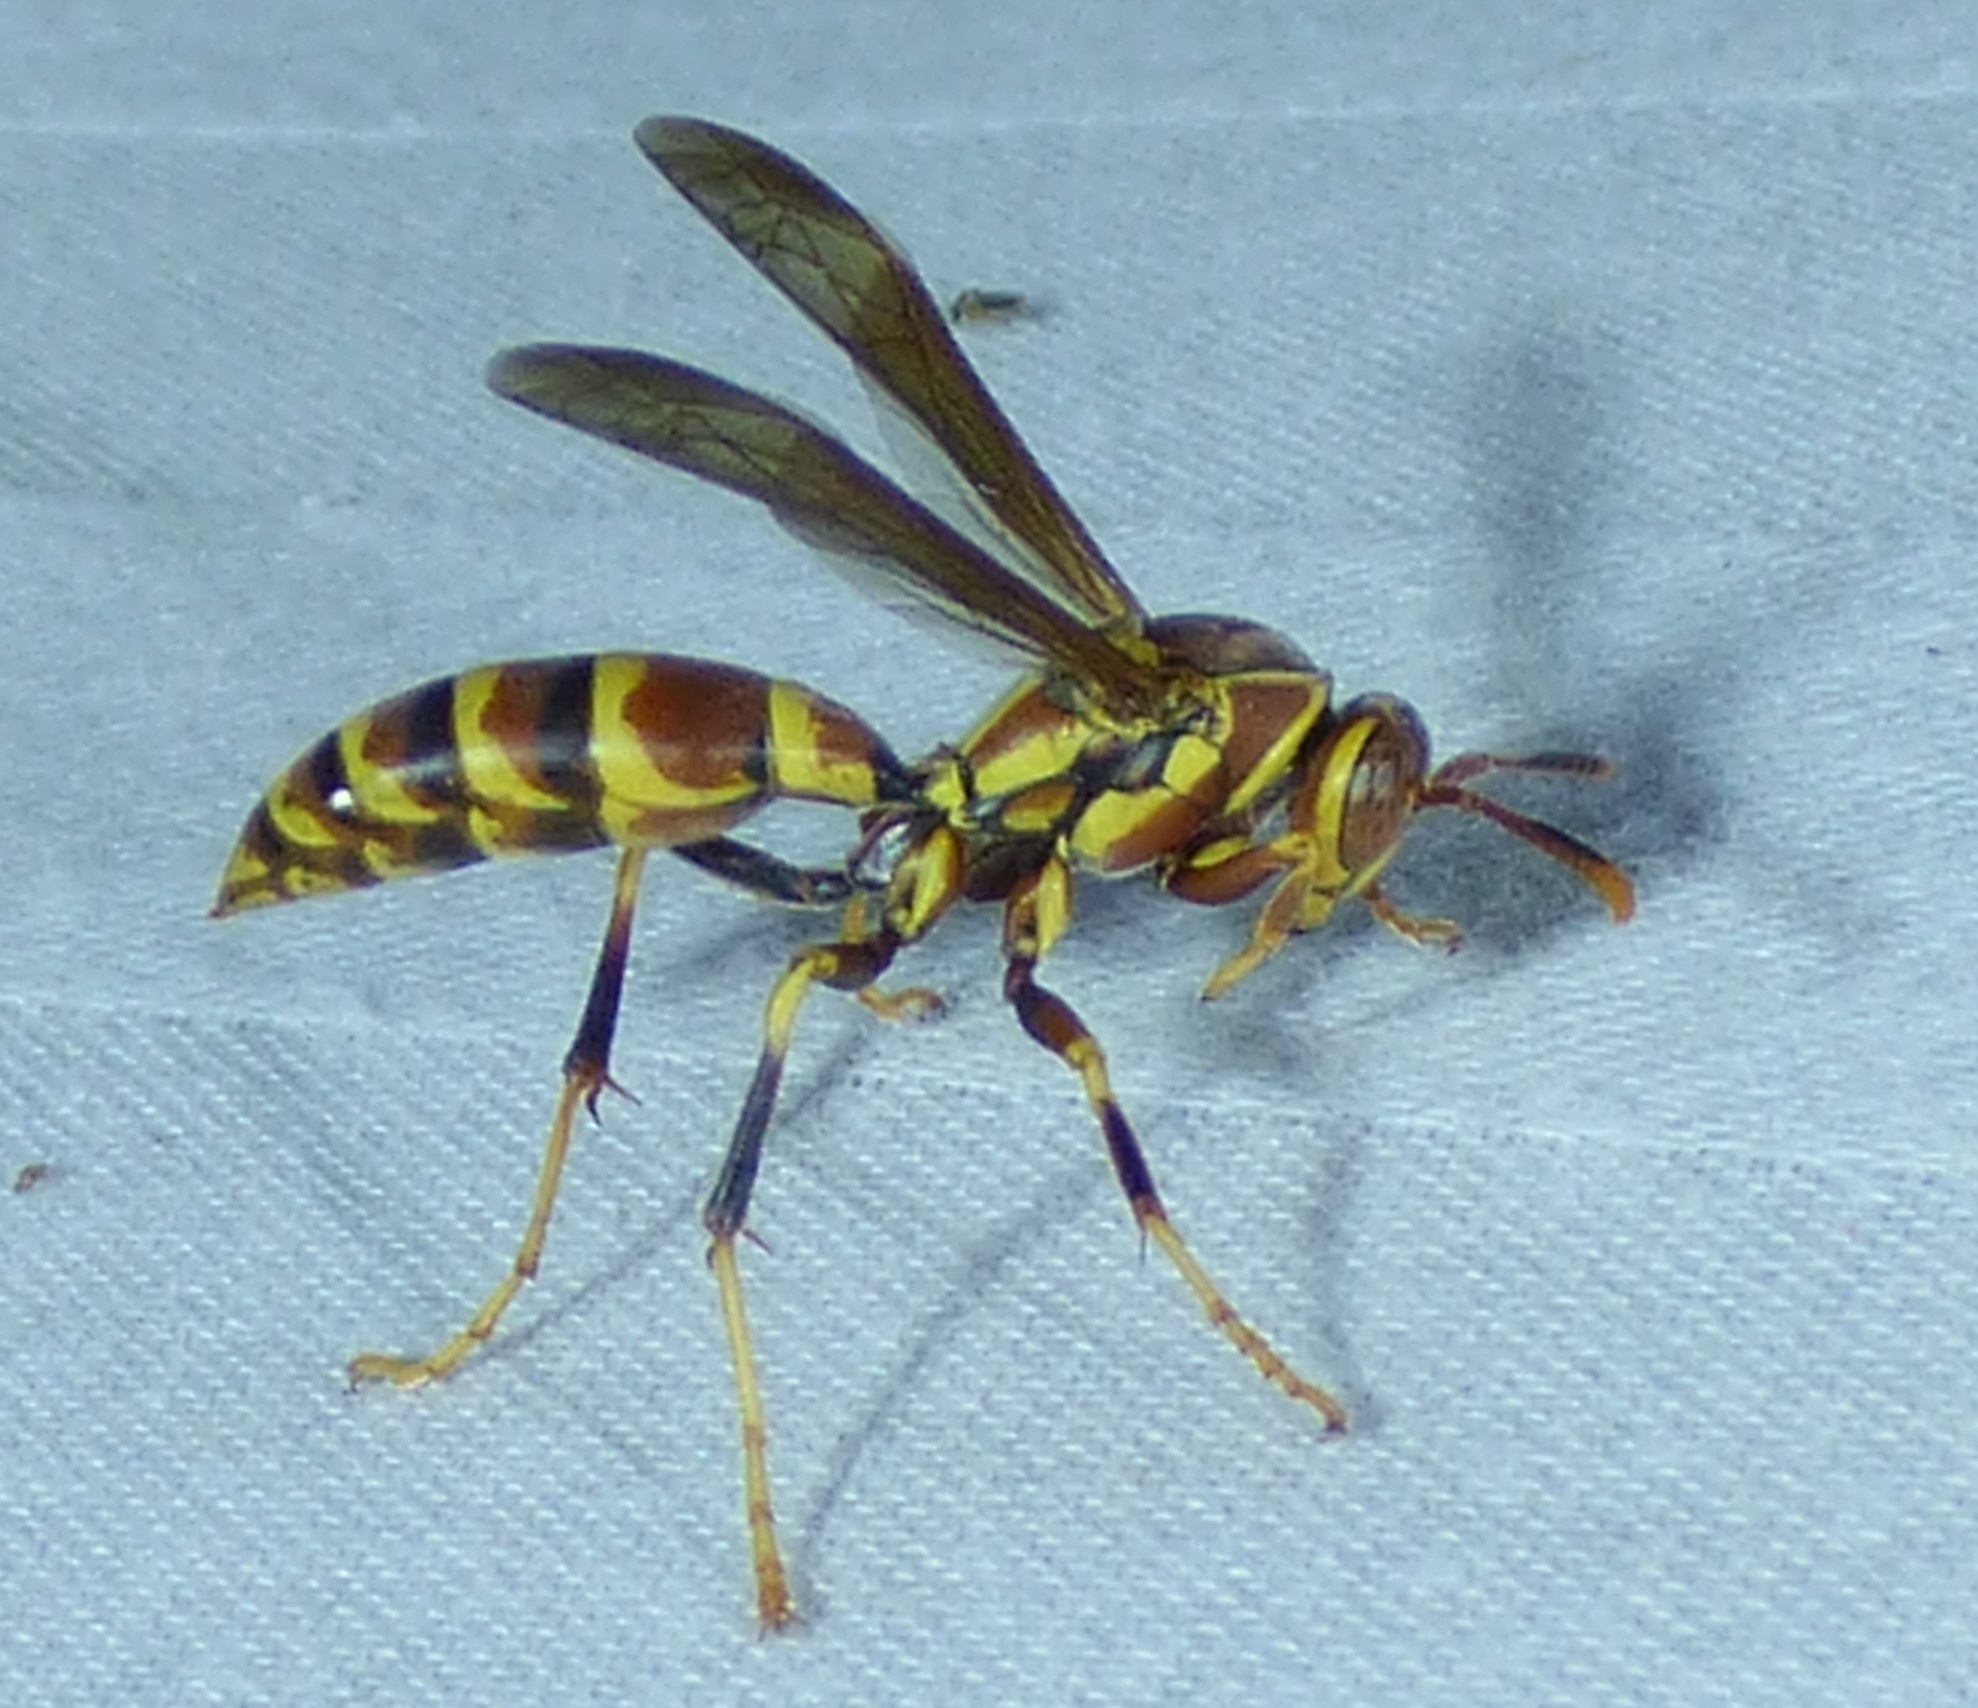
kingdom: Animalia
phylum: Arthropoda
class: Insecta
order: Hymenoptera
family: Eumenidae
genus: Polistes
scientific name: Polistes exclamans
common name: Paper wasp
